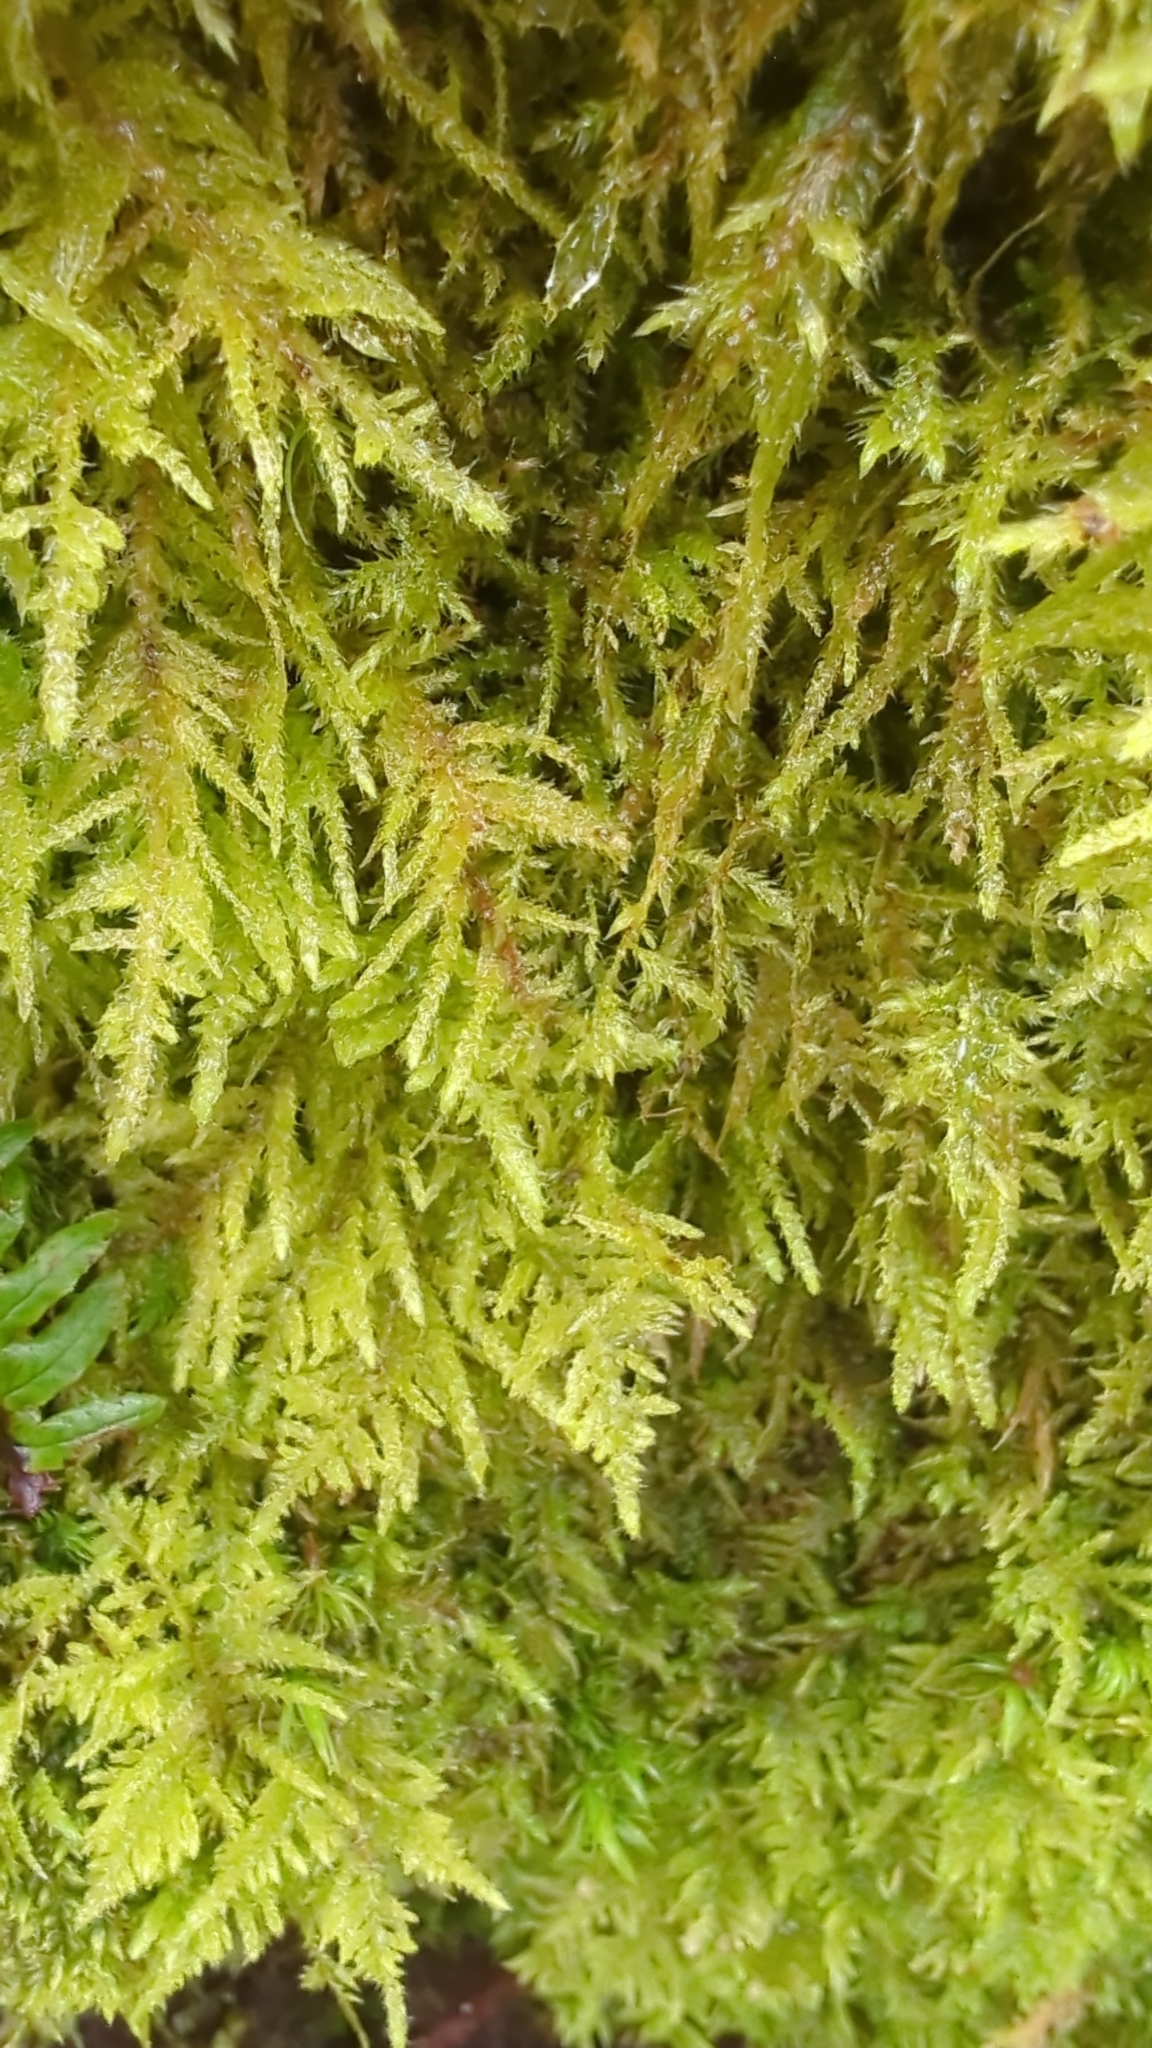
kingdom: Plantae
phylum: Bryophyta
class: Bryopsida
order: Hypnales
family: Brachytheciaceae
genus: Kindbergia
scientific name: Kindbergia oregana
